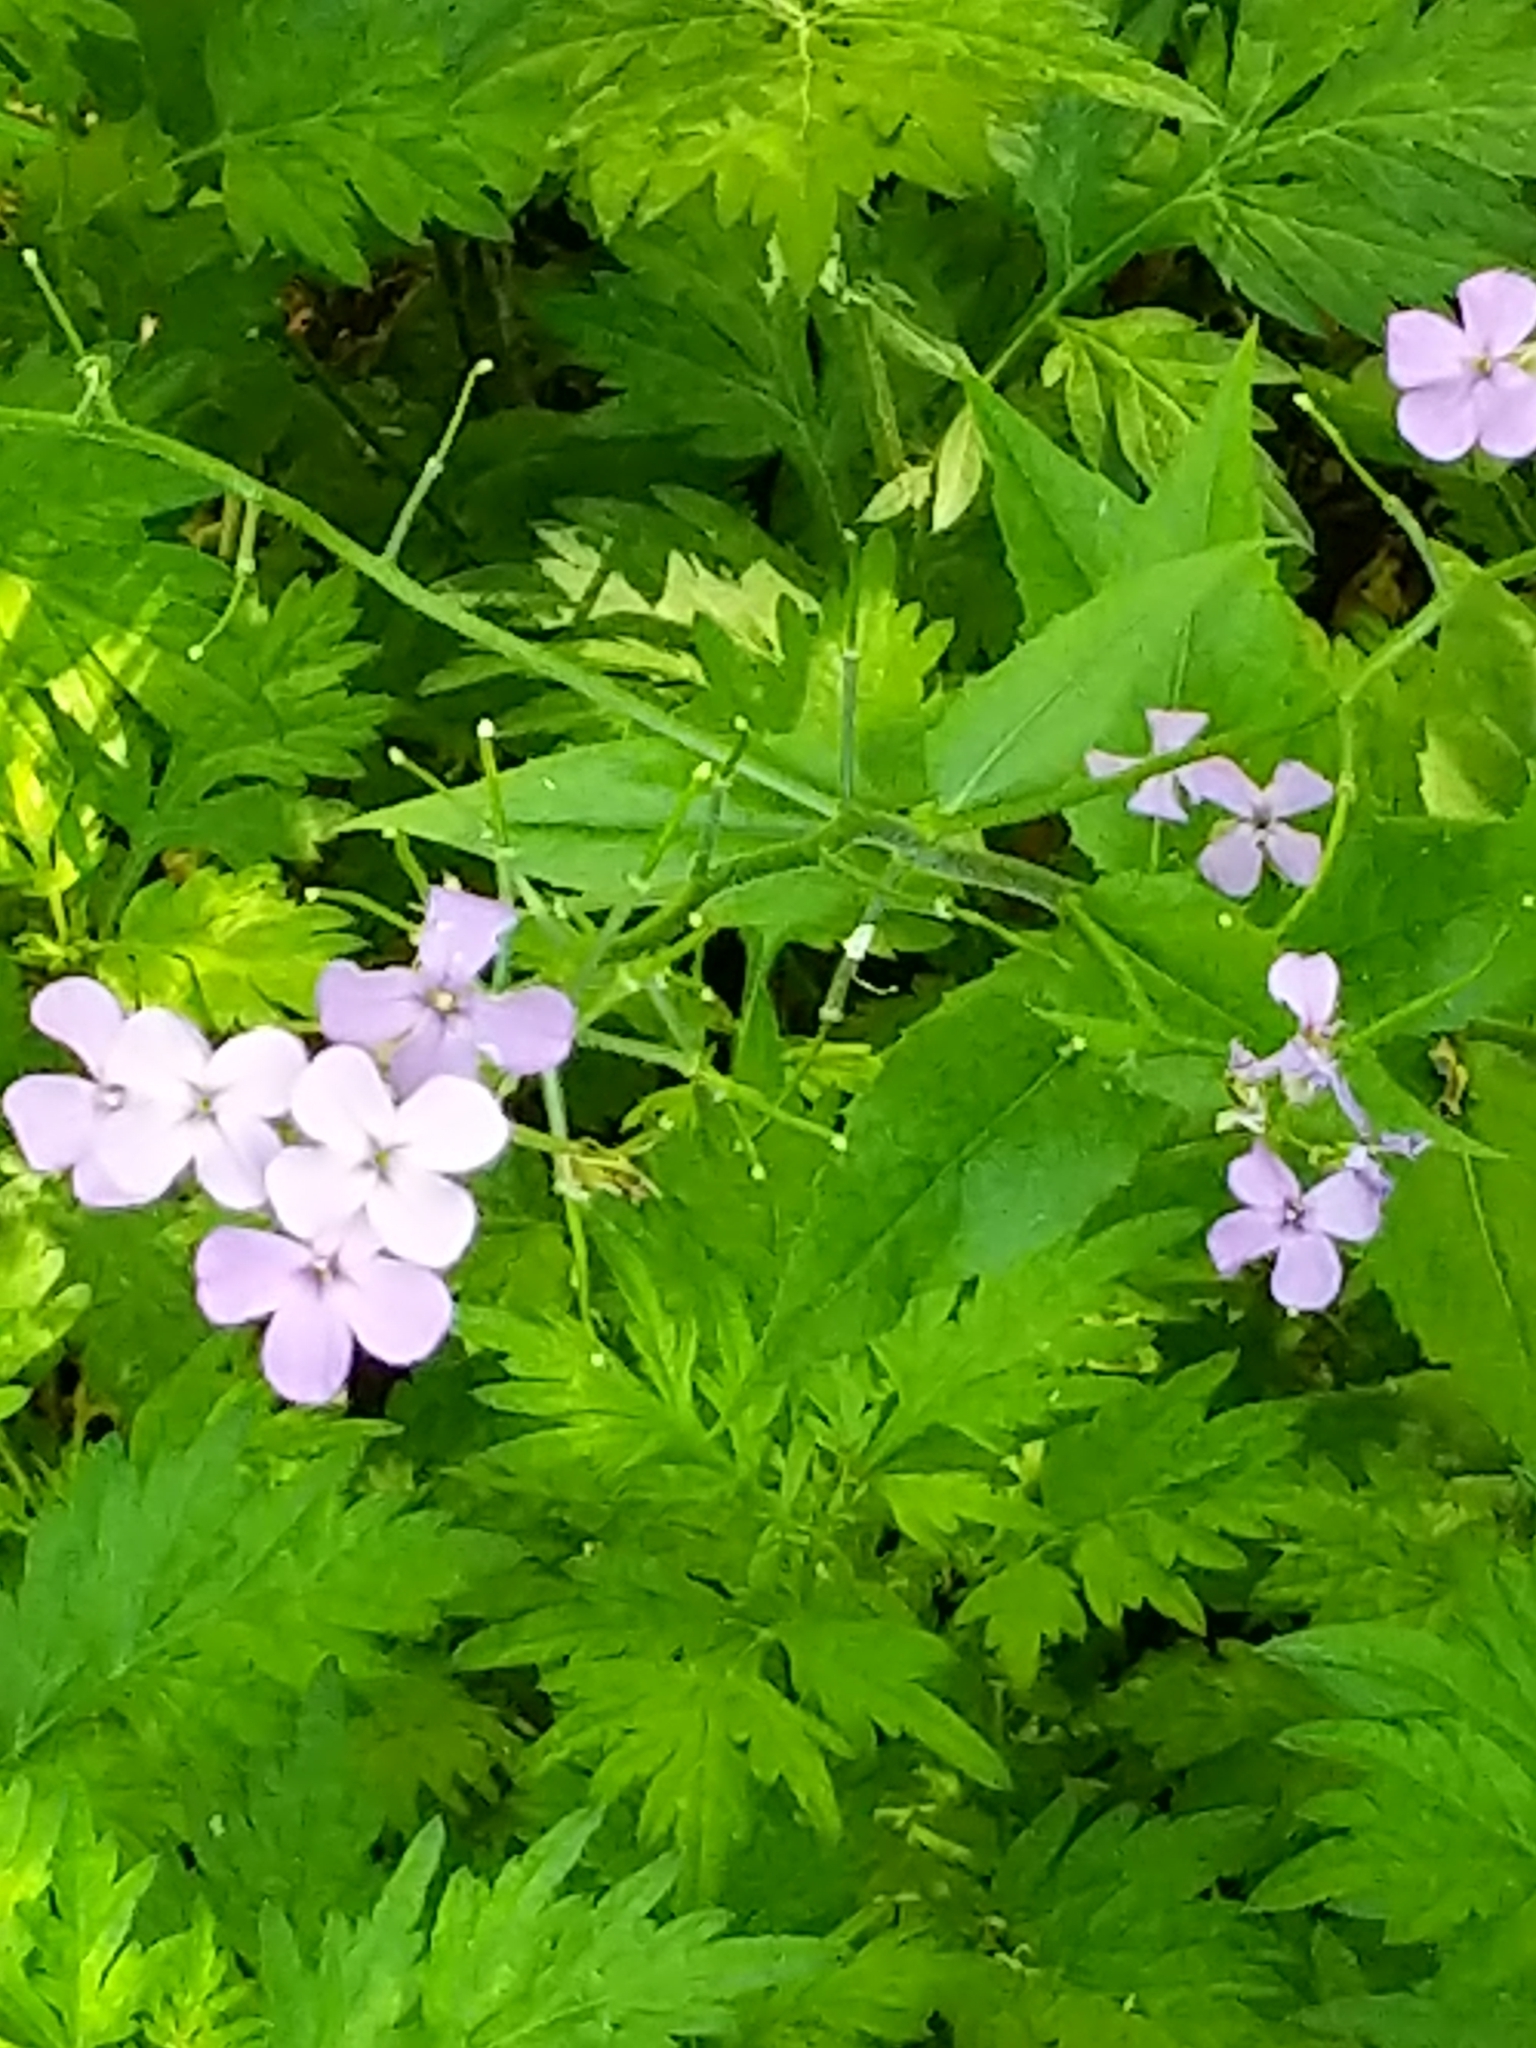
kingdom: Plantae
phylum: Tracheophyta
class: Magnoliopsida
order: Brassicales
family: Brassicaceae
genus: Hesperis
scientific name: Hesperis matronalis
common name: Dame's-violet
